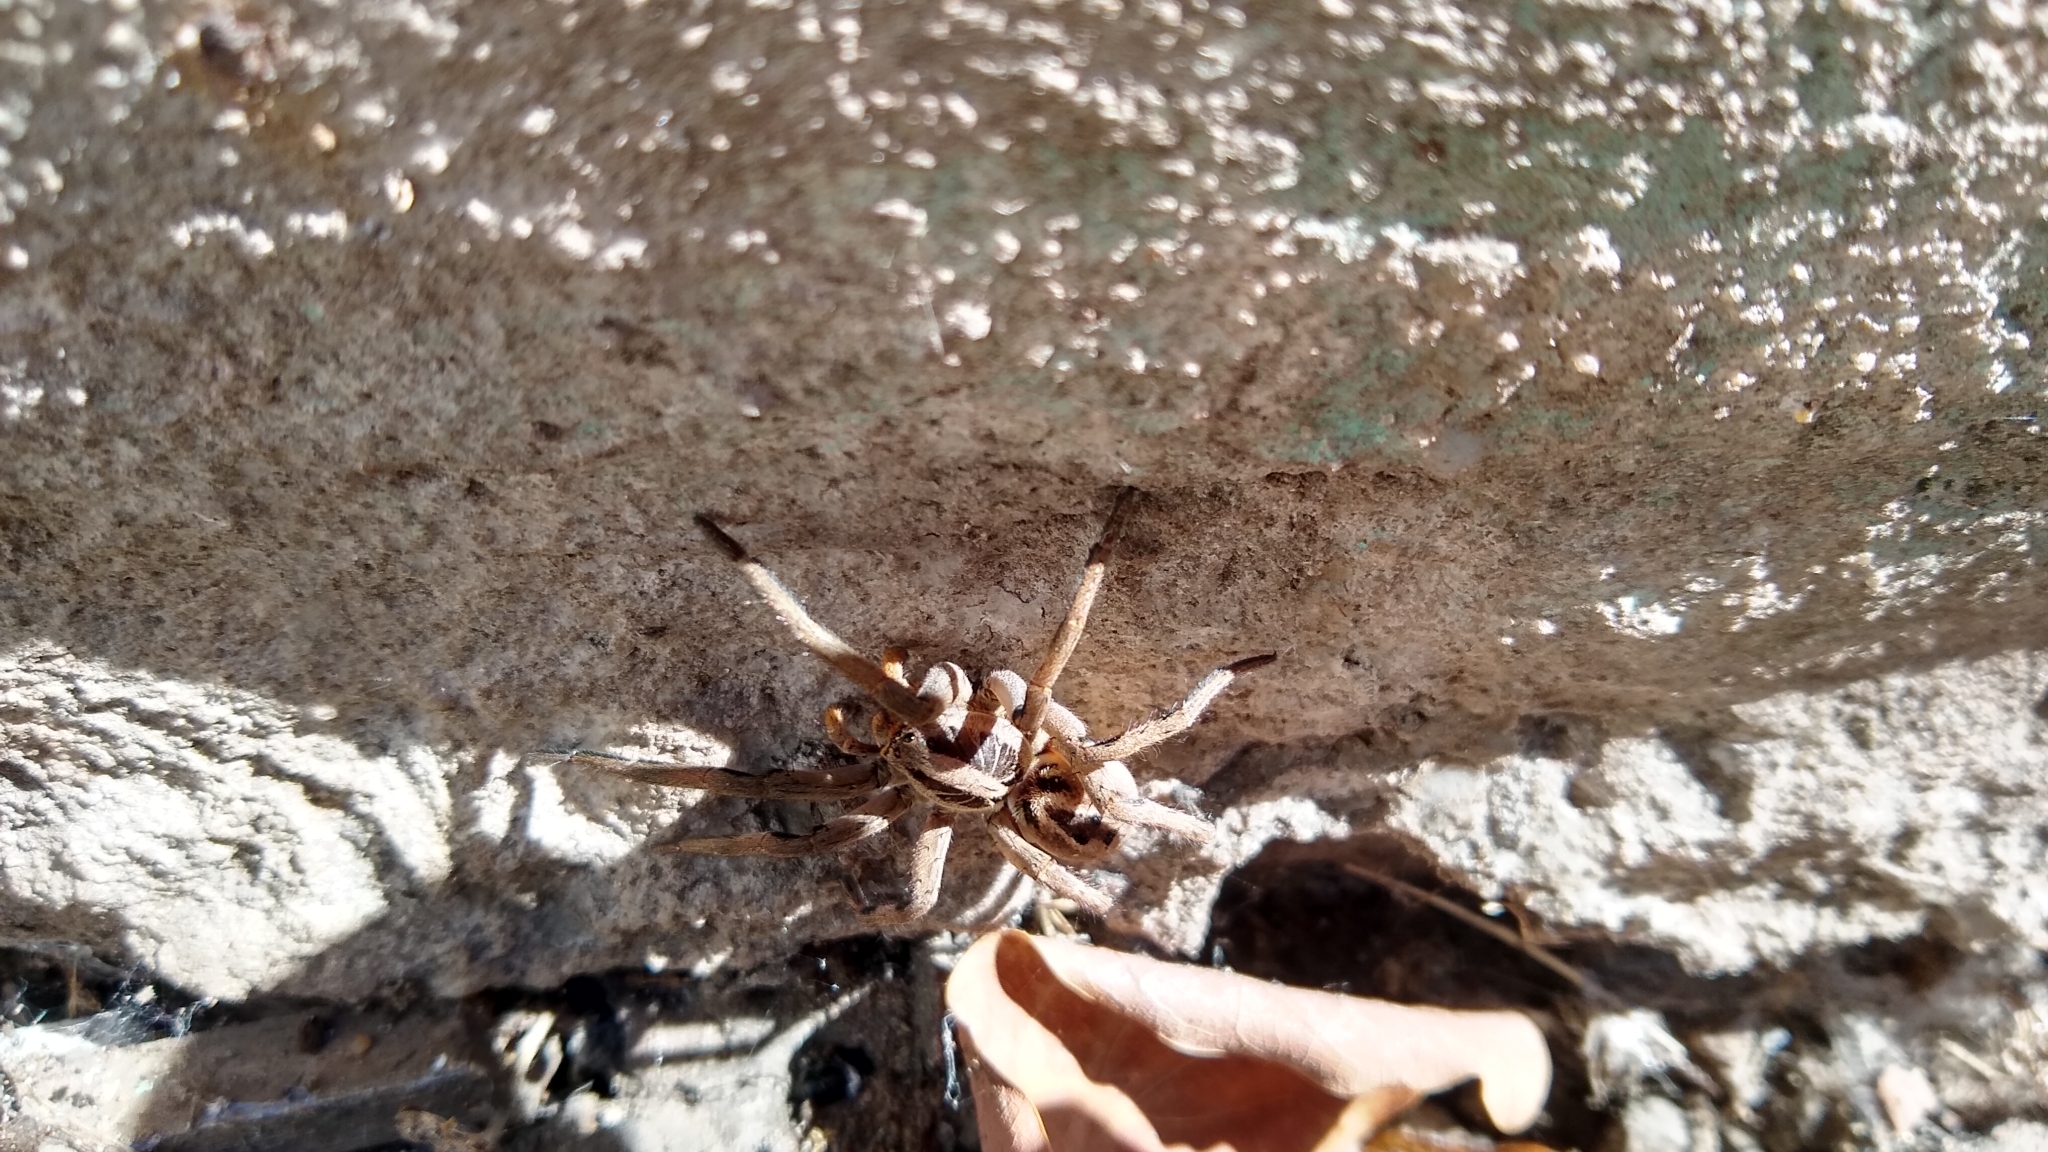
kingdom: Animalia
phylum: Arthropoda
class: Arachnida
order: Araneae
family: Lycosidae
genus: Lycosa
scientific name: Lycosa erythrognatha
